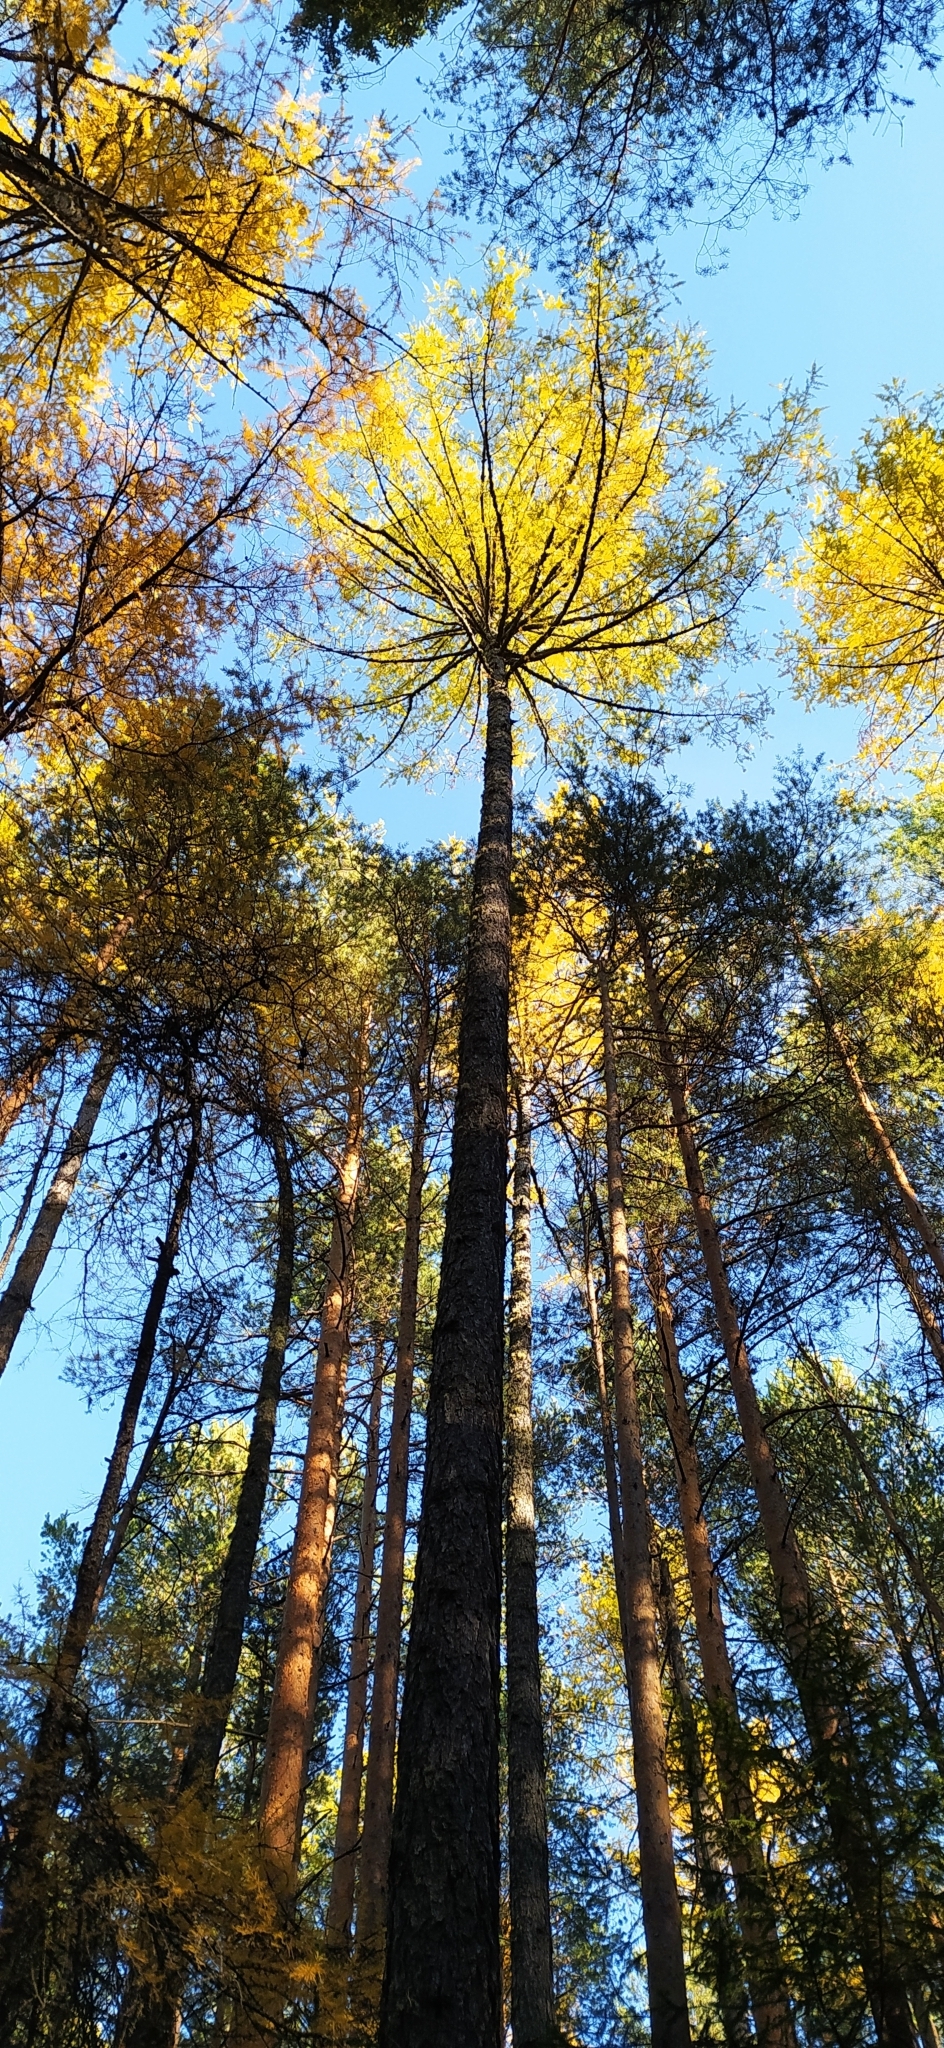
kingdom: Plantae
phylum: Tracheophyta
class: Pinopsida
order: Pinales
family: Pinaceae
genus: Larix
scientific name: Larix sibirica
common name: Siberian larch
